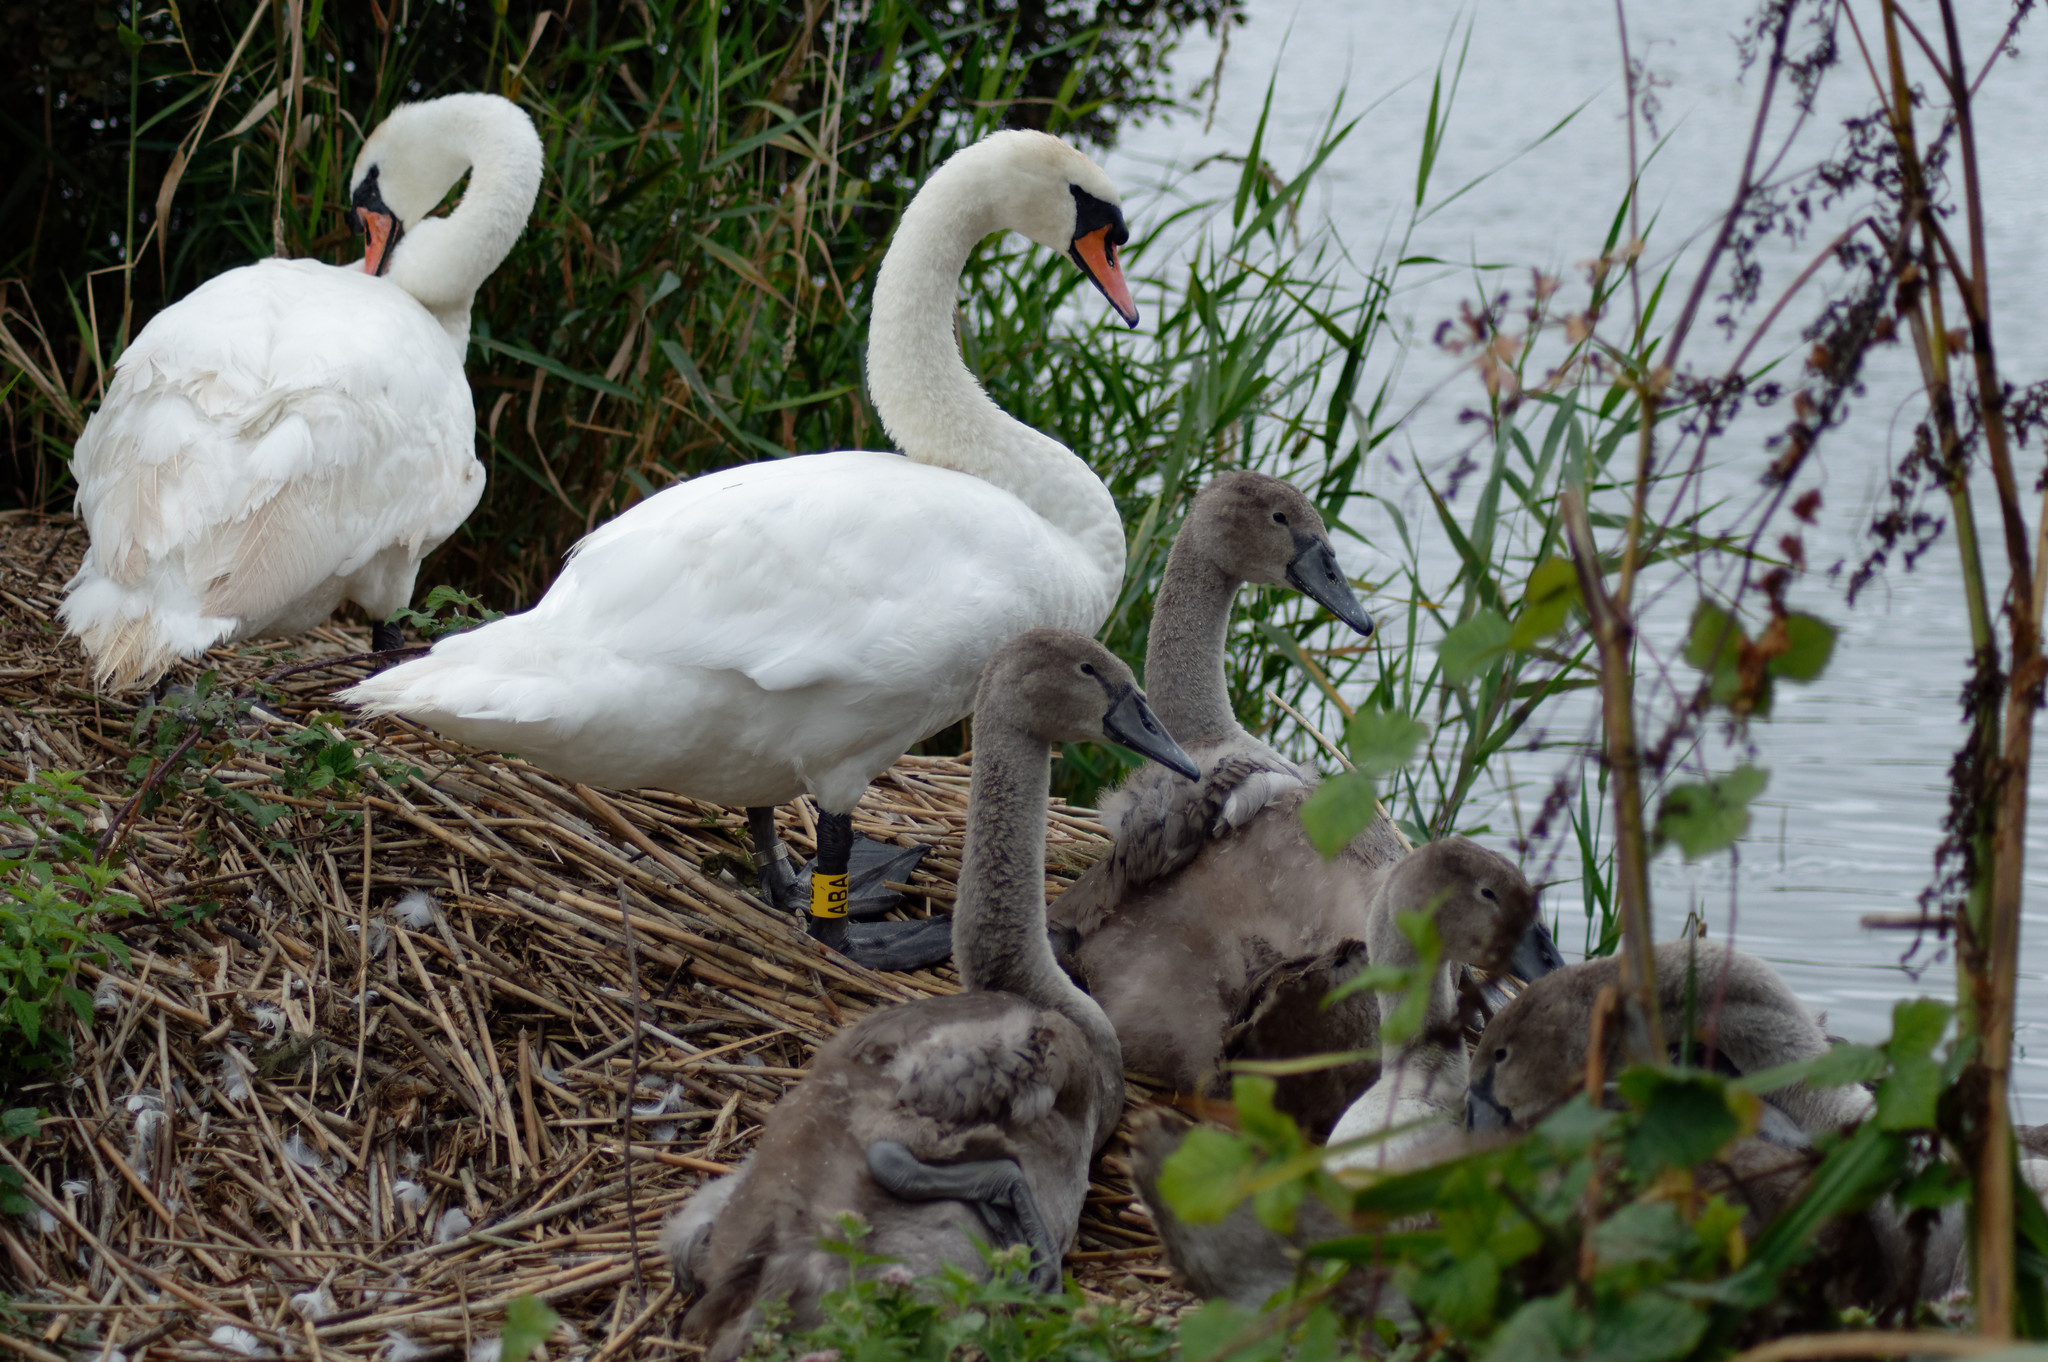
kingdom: Animalia
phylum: Chordata
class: Aves
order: Anseriformes
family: Anatidae
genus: Cygnus
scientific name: Cygnus olor
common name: Mute swan
